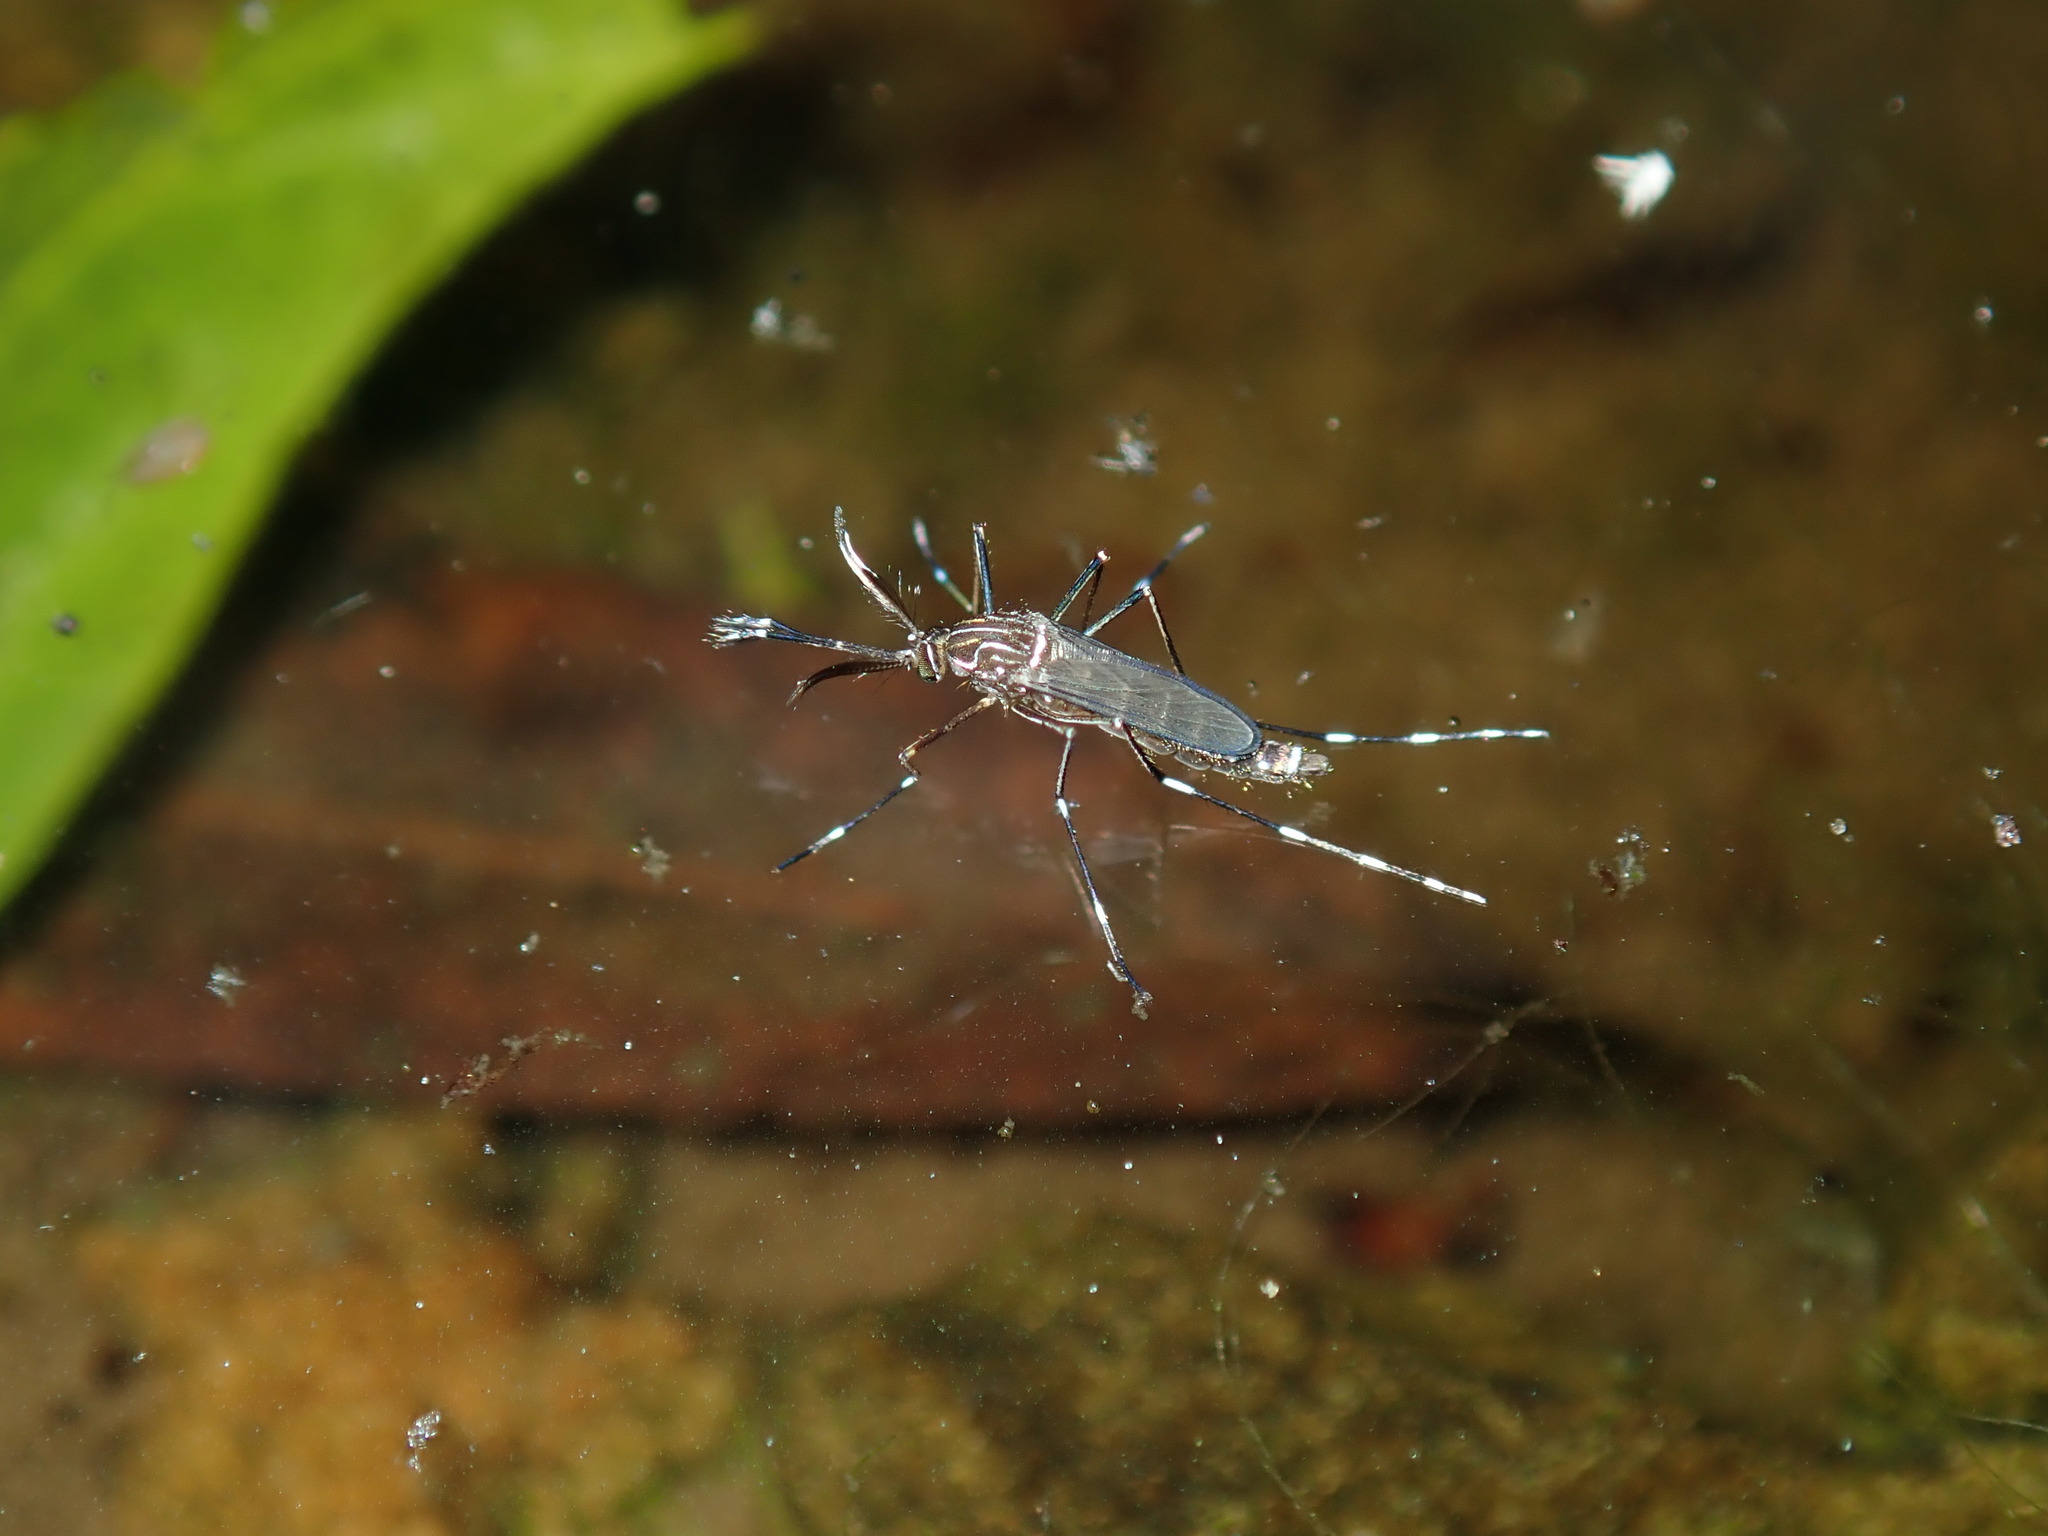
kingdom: Animalia
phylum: Arthropoda
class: Insecta
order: Diptera
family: Culicidae
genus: Aedes
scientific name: Aedes notoscriptus
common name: Australian backyard mosquito
